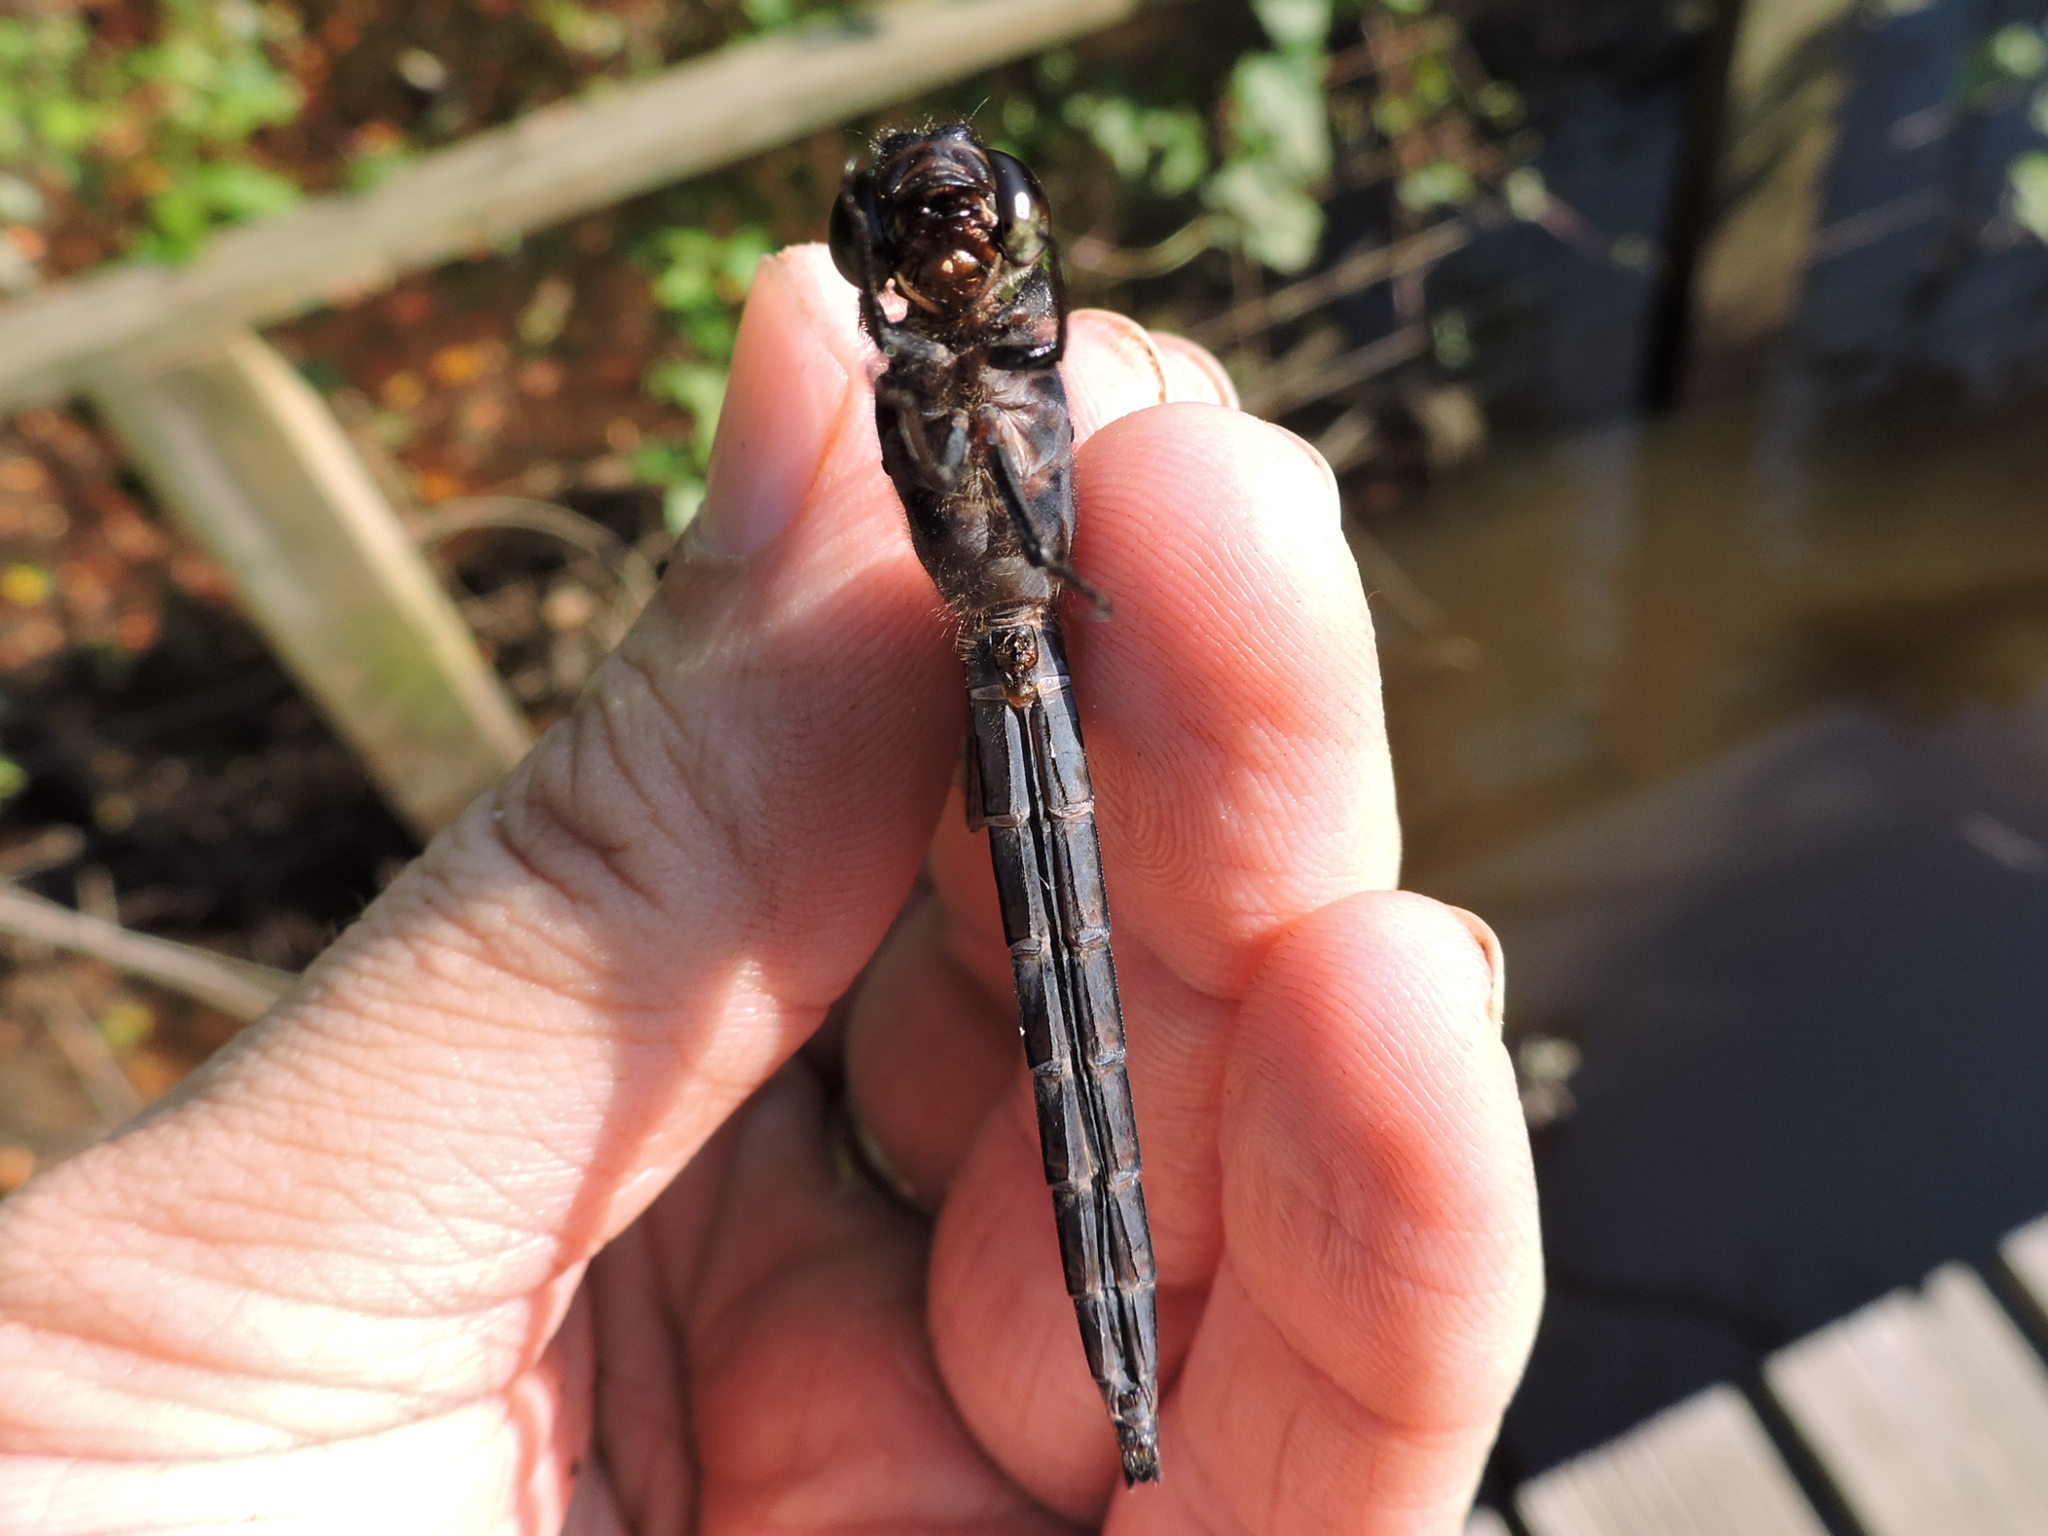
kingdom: Animalia
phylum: Arthropoda
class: Insecta
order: Odonata
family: Libellulidae
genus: Libellula
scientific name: Libellula incesta
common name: Slaty skimmer
